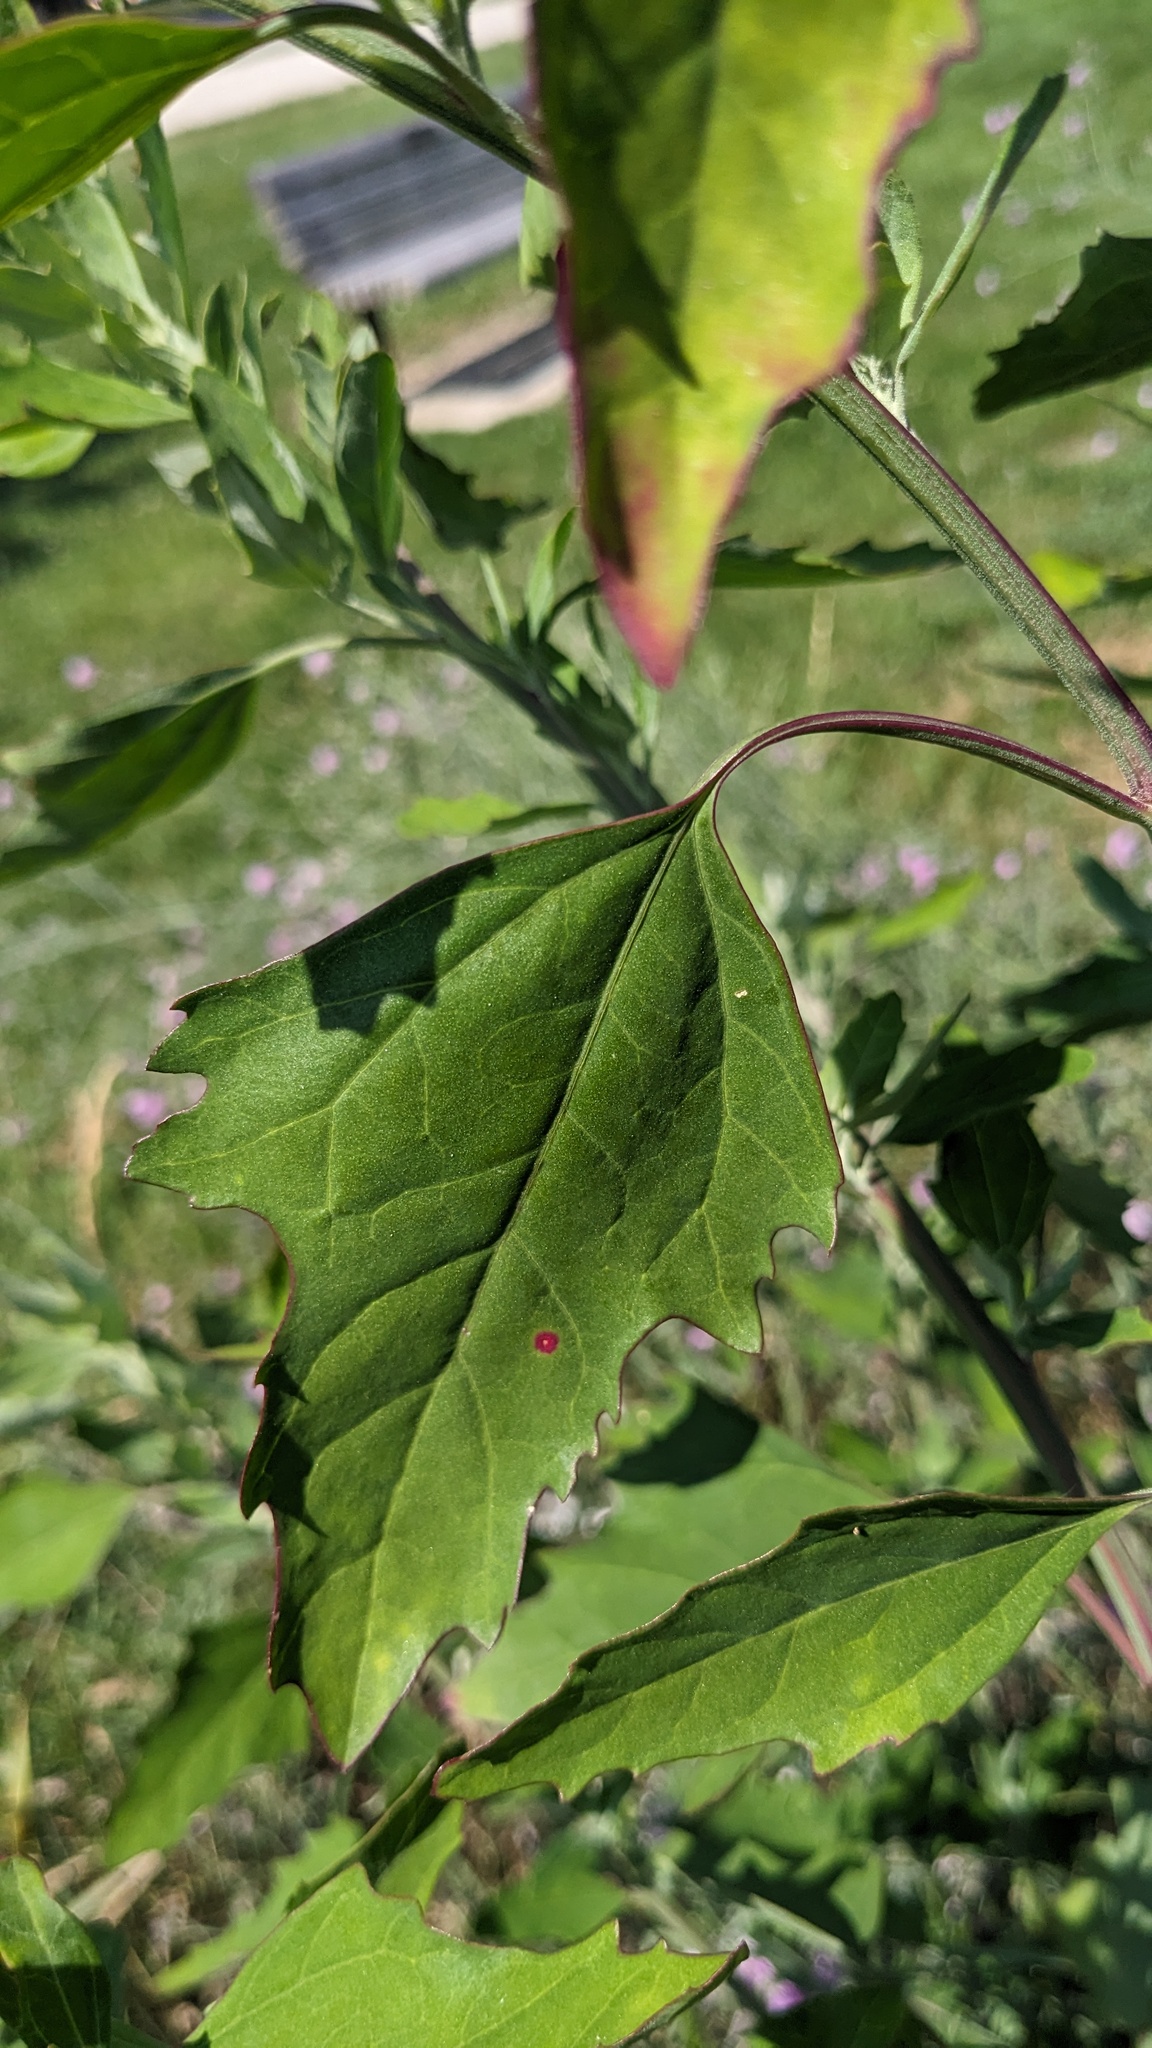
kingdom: Animalia
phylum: Arthropoda
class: Insecta
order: Hemiptera
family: Cicadellidae
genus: Norvellina
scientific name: Norvellina chenopodii
